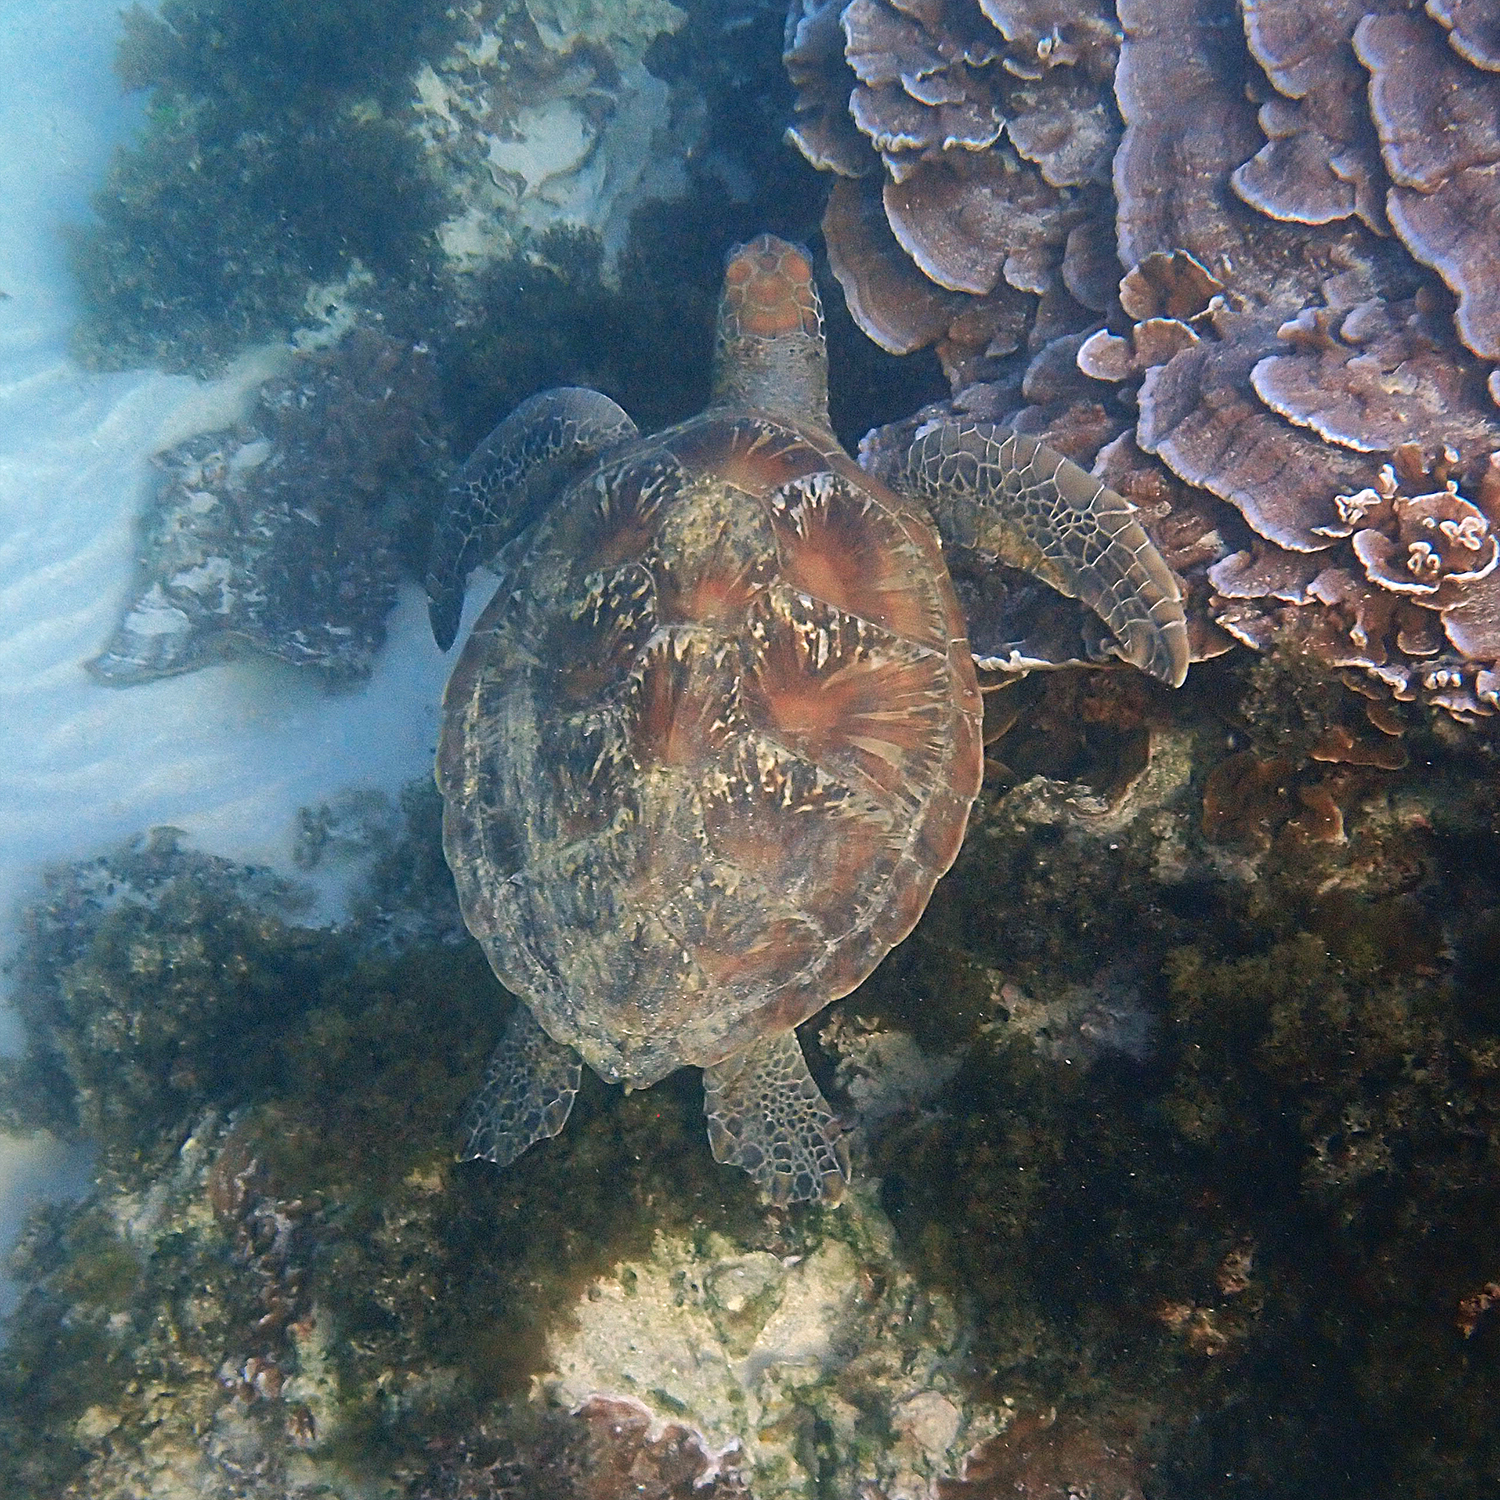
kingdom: Animalia
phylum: Chordata
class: Testudines
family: Cheloniidae
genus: Chelonia
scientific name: Chelonia mydas
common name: Green turtle
